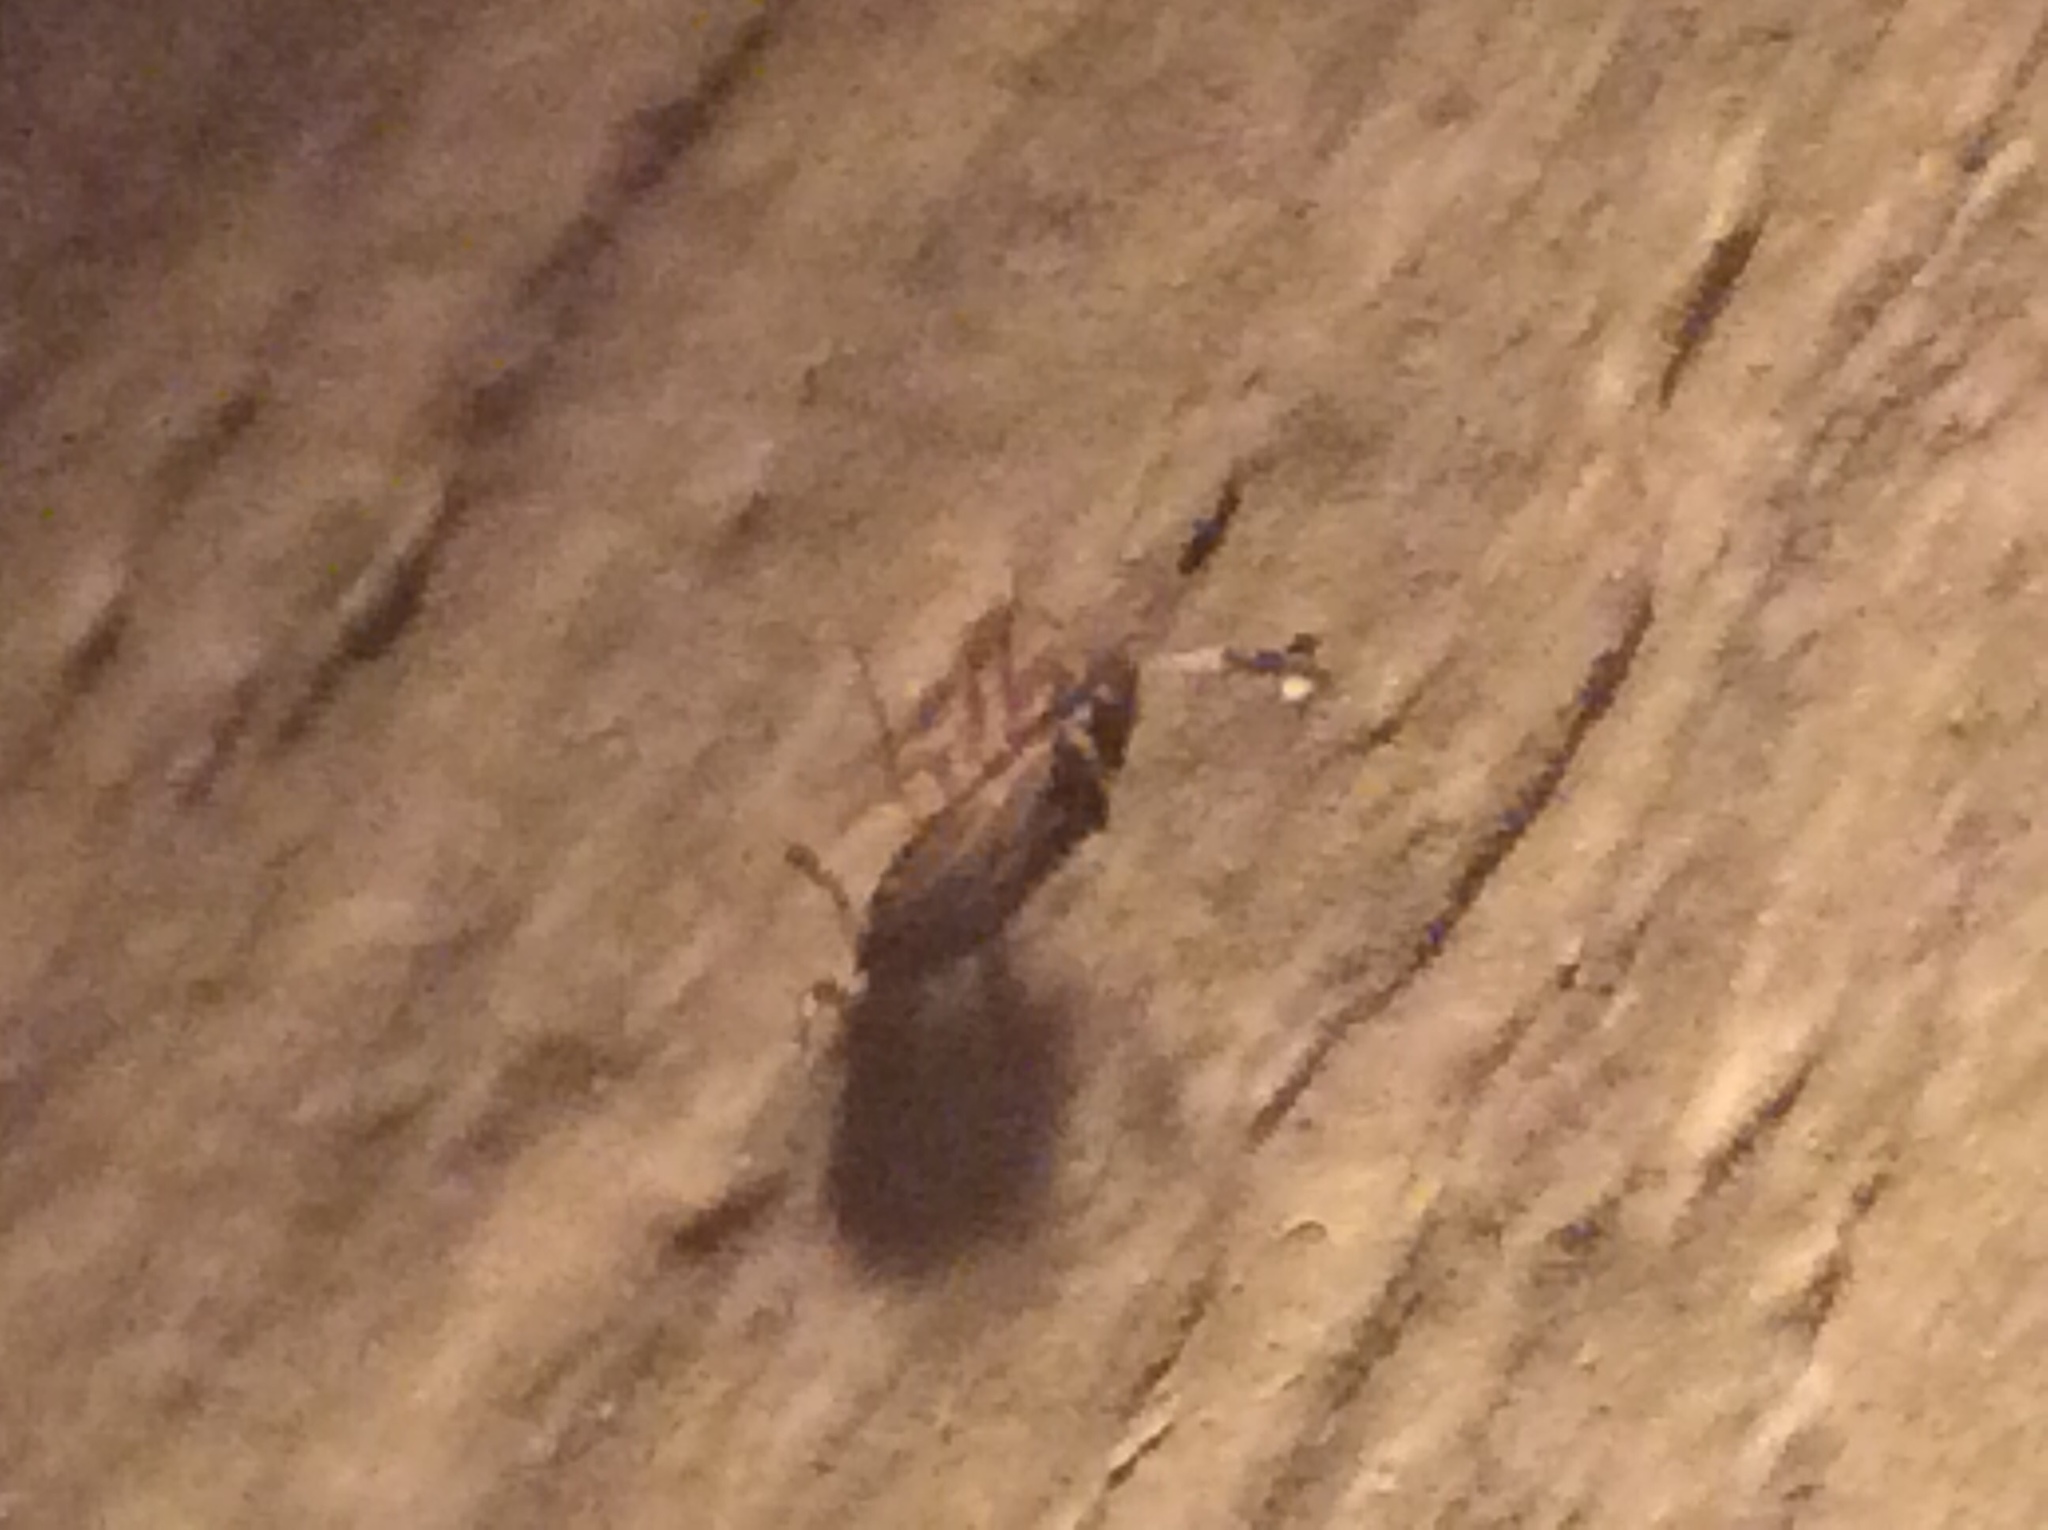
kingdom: Animalia
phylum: Arthropoda
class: Insecta
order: Hemiptera
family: Rhyparochromidae
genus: Ptochiomera
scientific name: Ptochiomera nodosa
